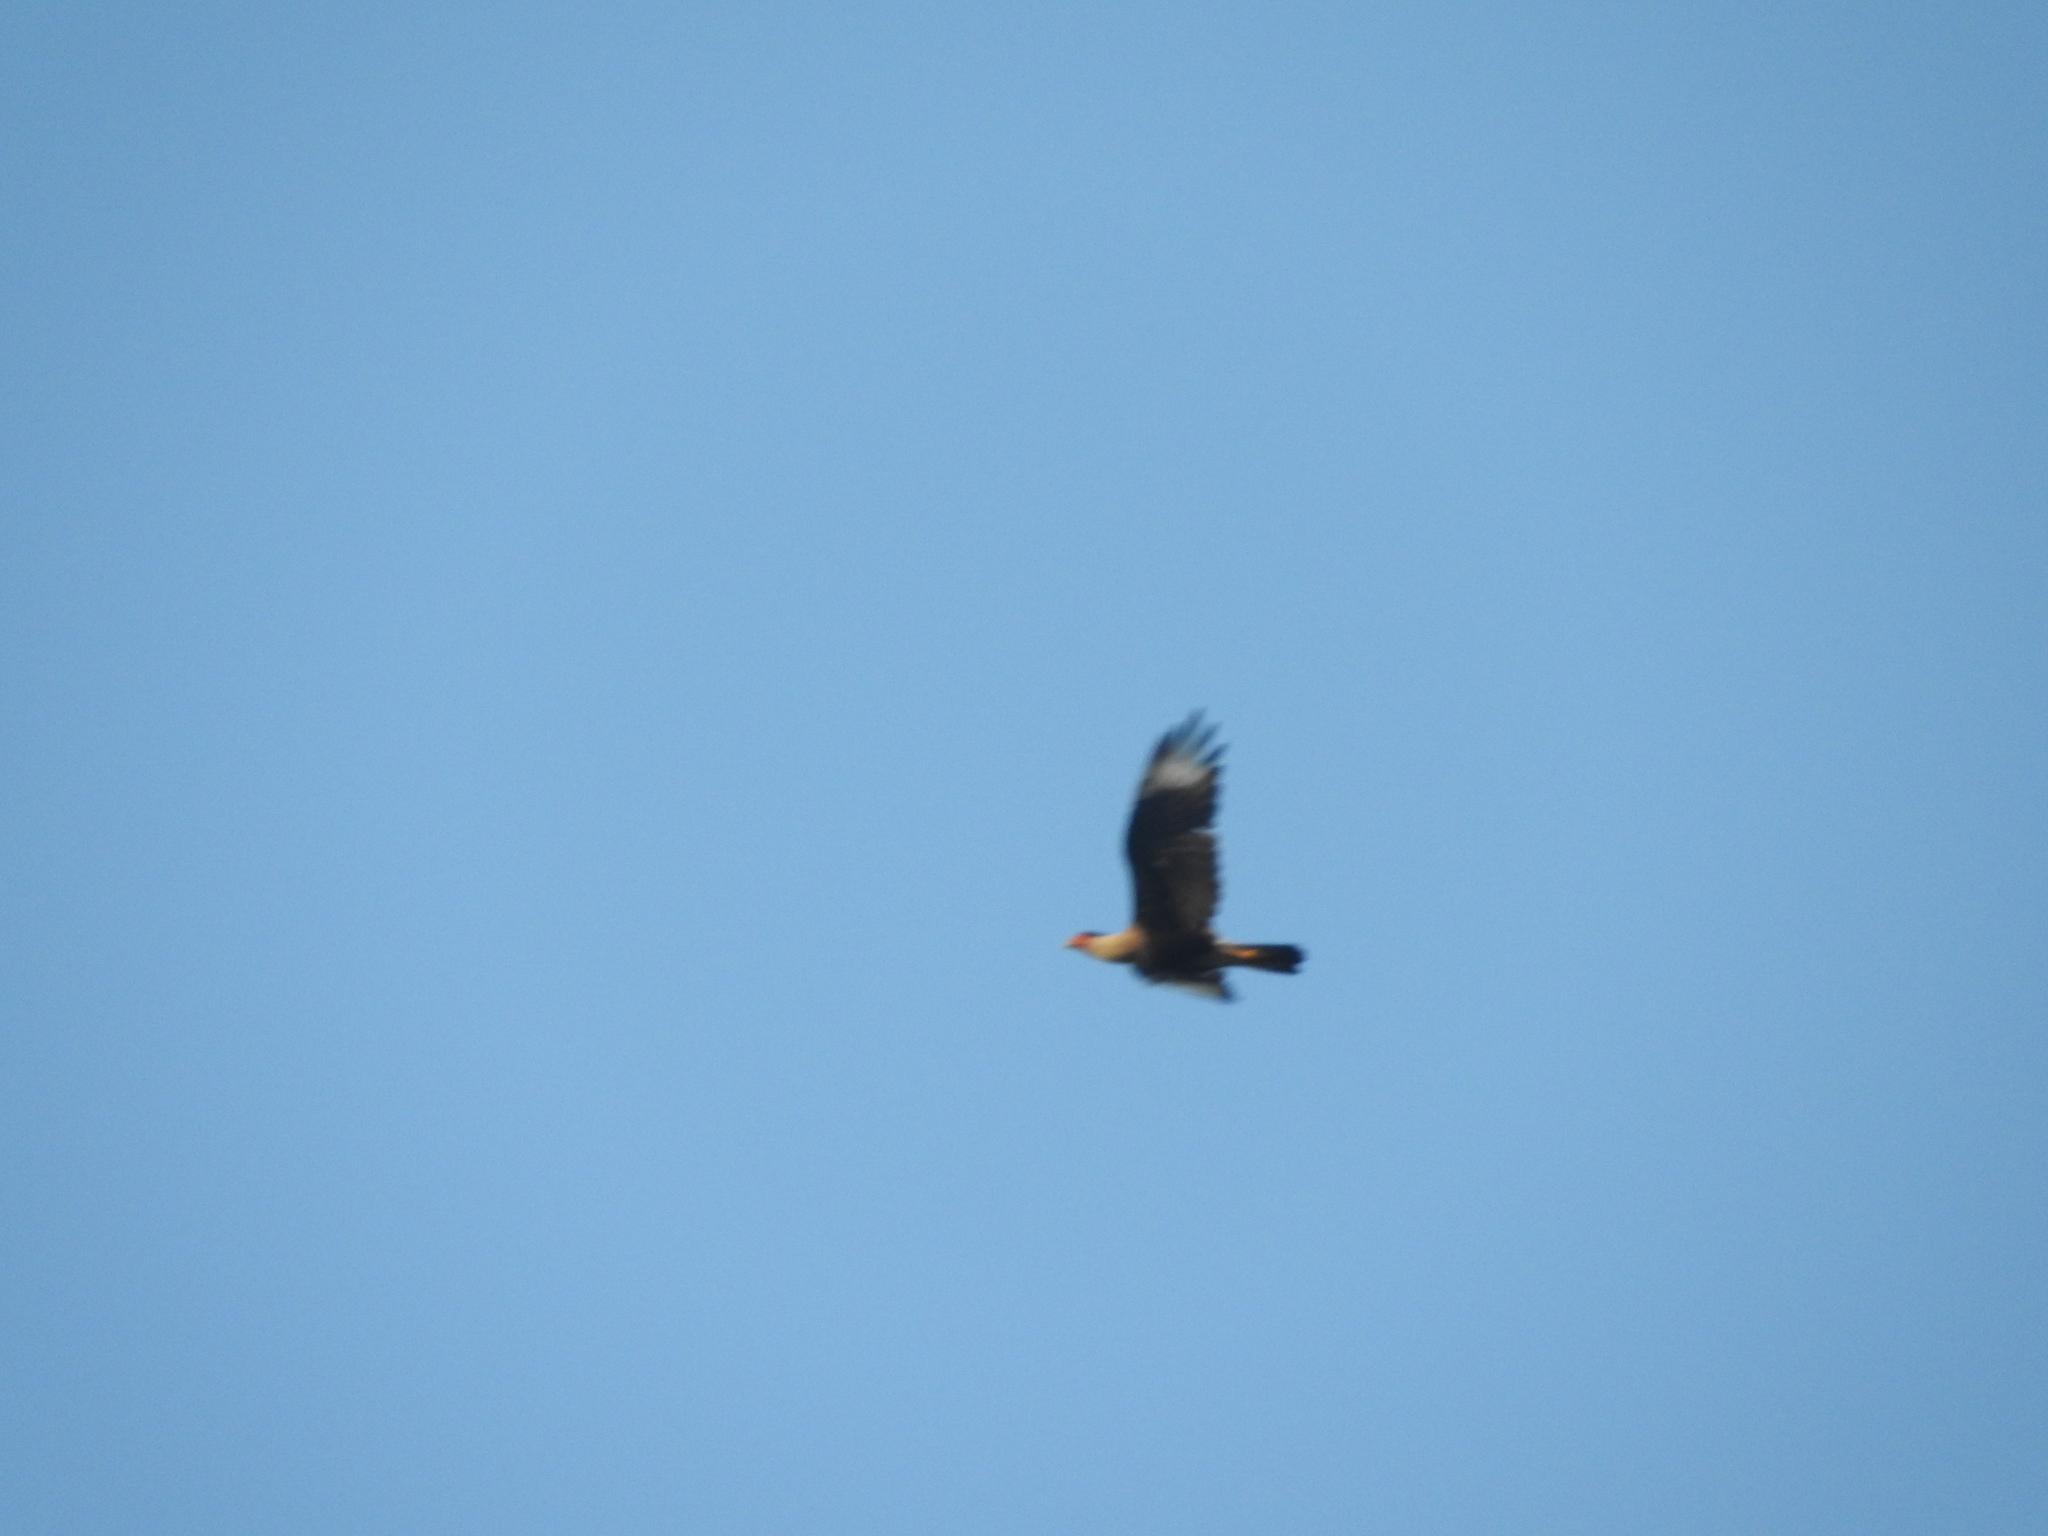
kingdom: Animalia
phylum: Chordata
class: Aves
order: Falconiformes
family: Falconidae
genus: Caracara
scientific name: Caracara plancus
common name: Southern caracara
